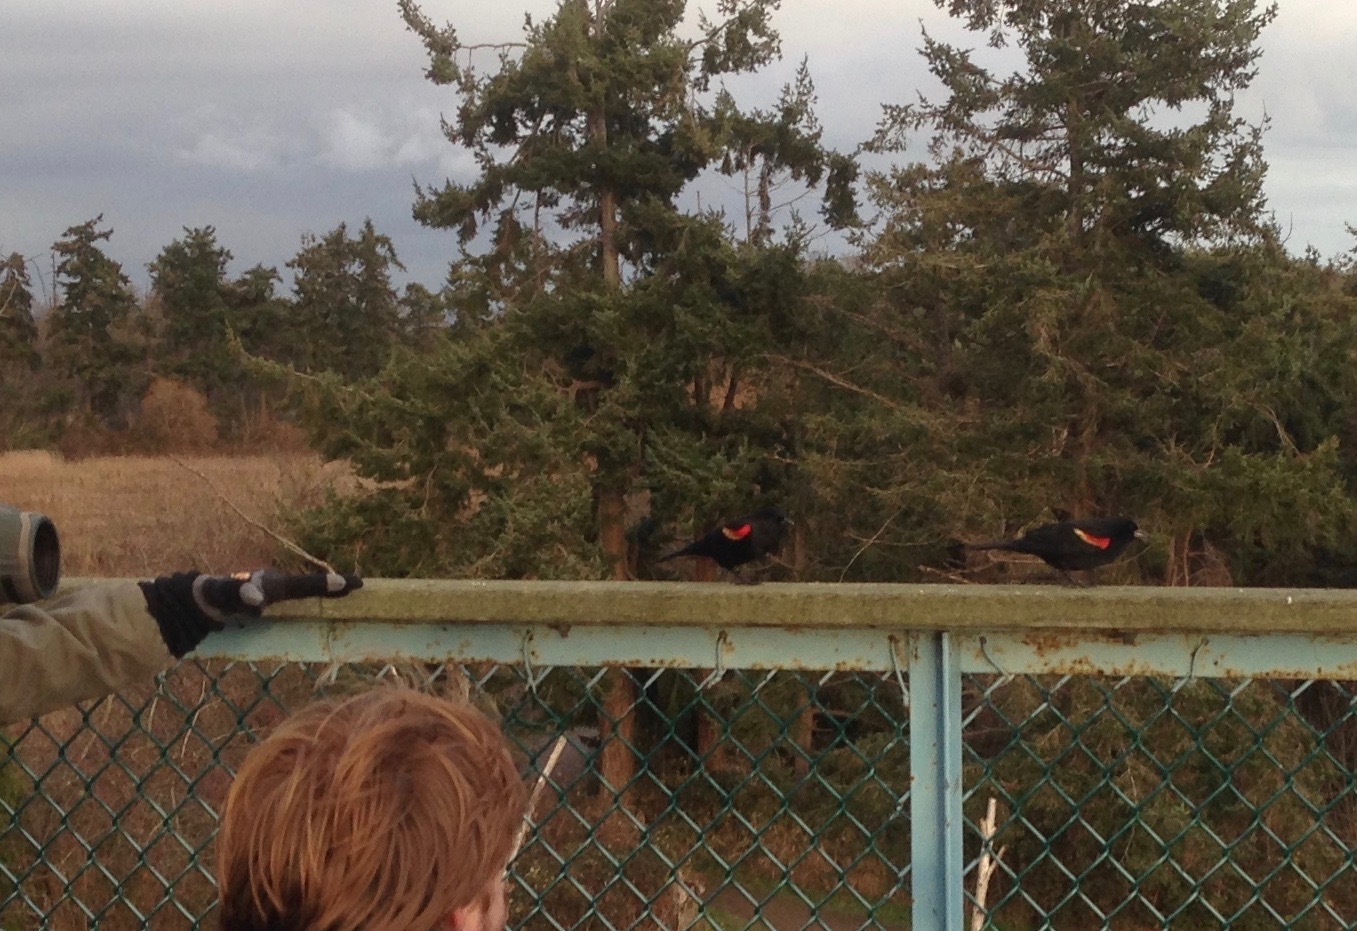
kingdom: Animalia
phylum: Chordata
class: Aves
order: Passeriformes
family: Icteridae
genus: Agelaius
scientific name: Agelaius phoeniceus
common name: Red-winged blackbird
